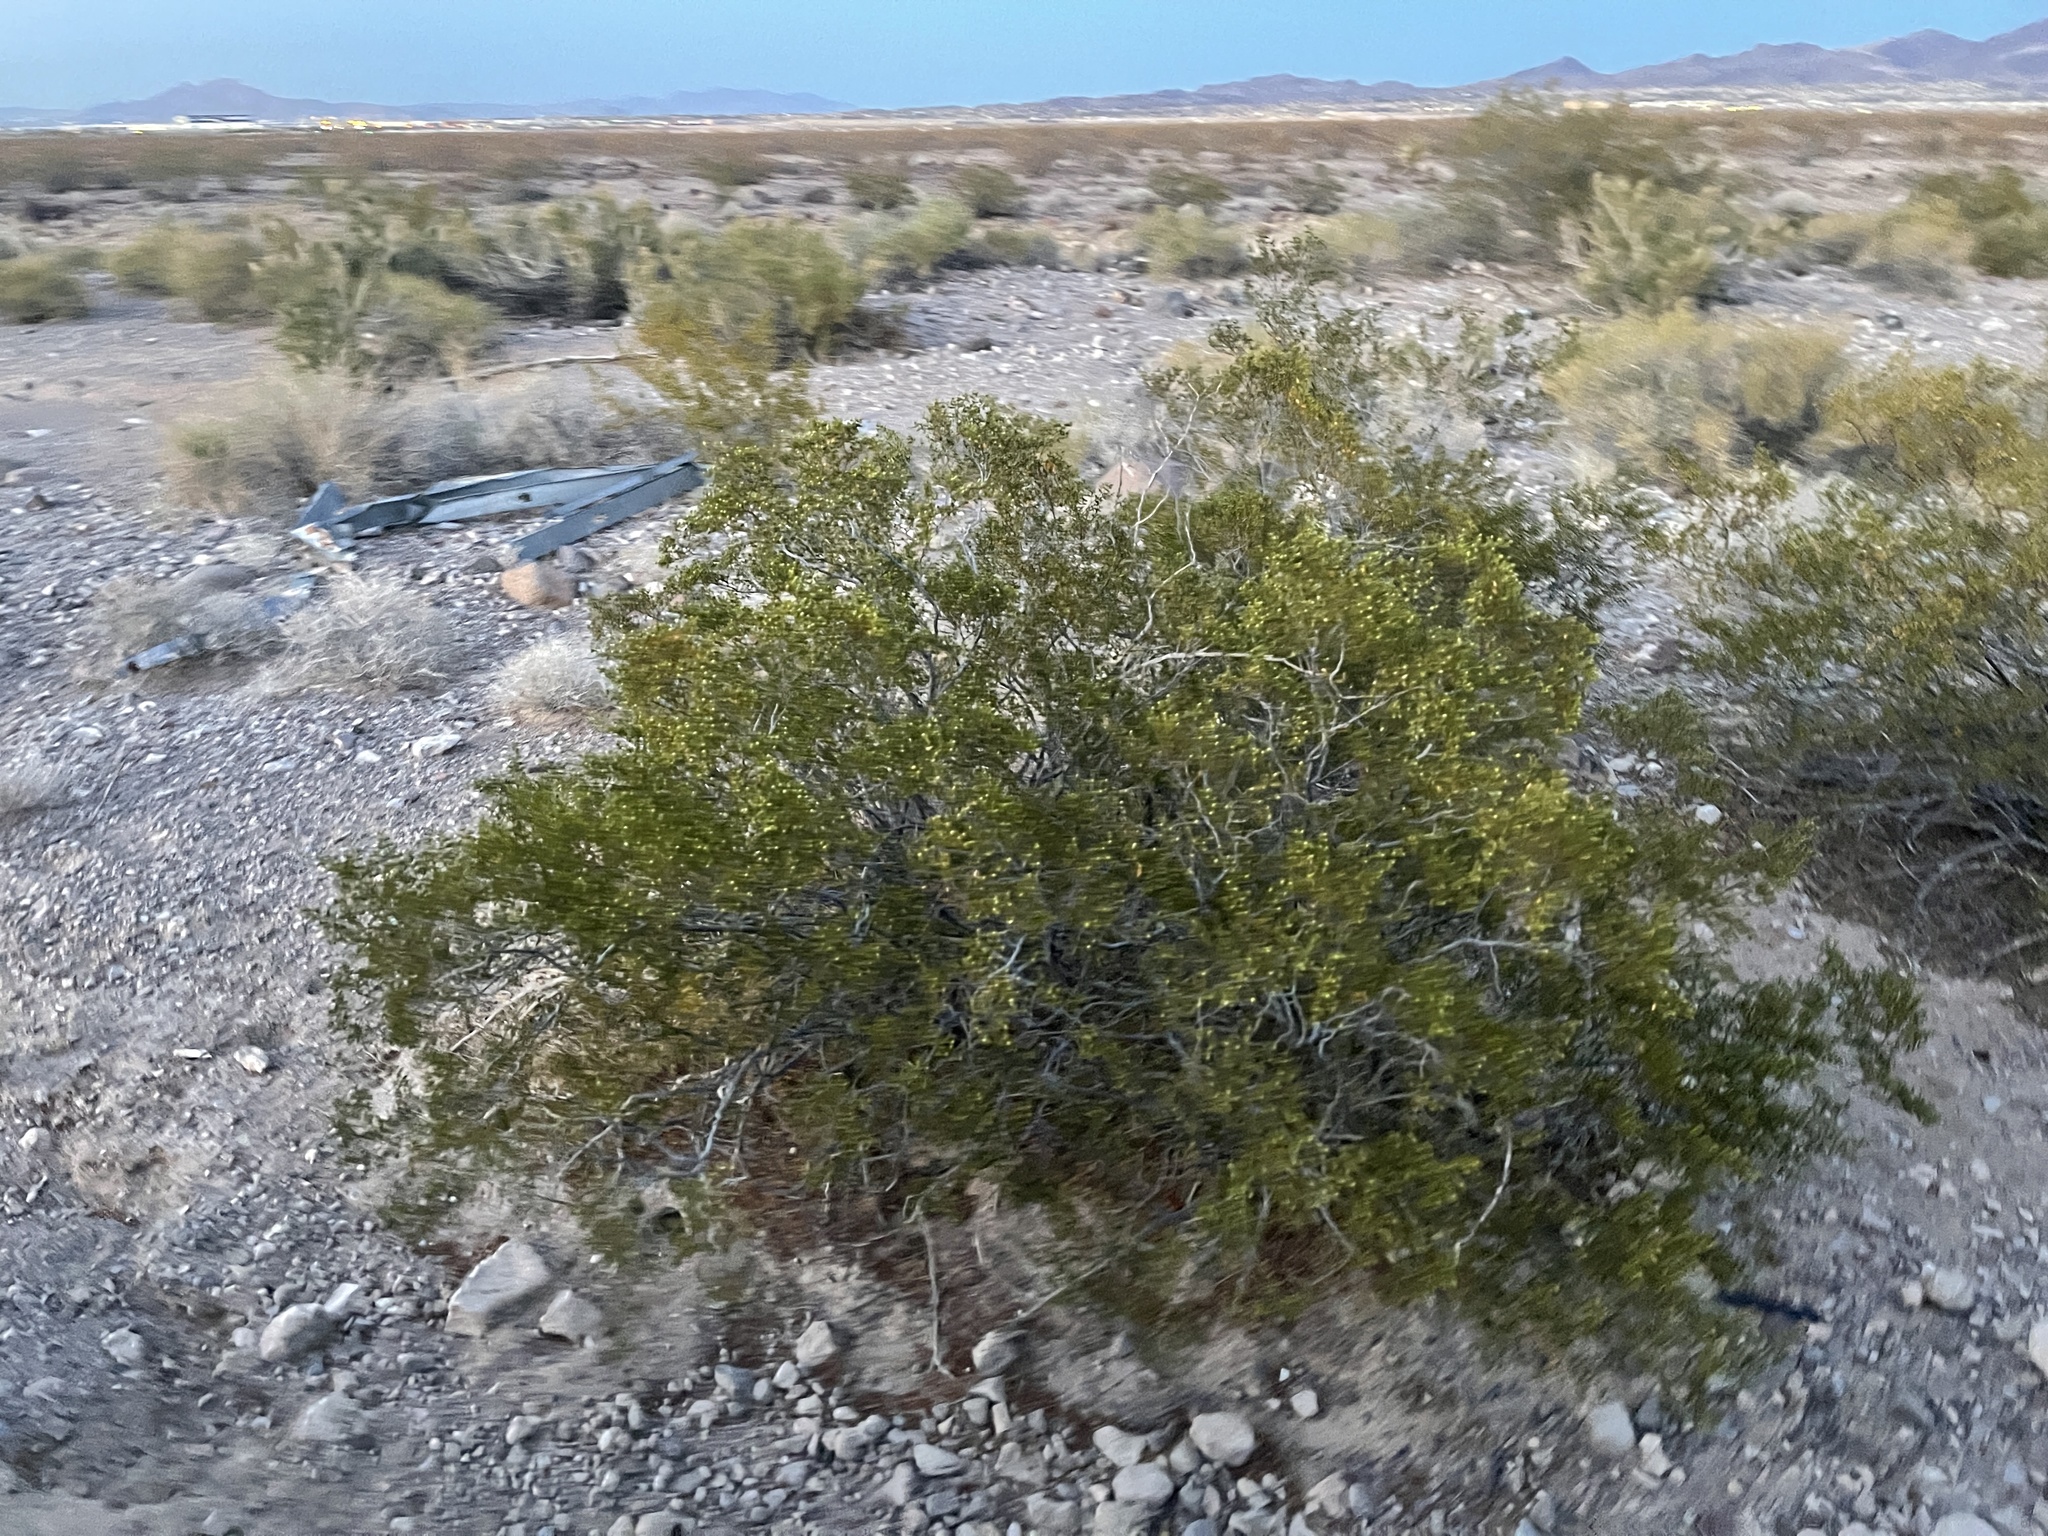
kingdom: Plantae
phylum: Tracheophyta
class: Magnoliopsida
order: Zygophyllales
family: Zygophyllaceae
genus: Larrea
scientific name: Larrea tridentata
